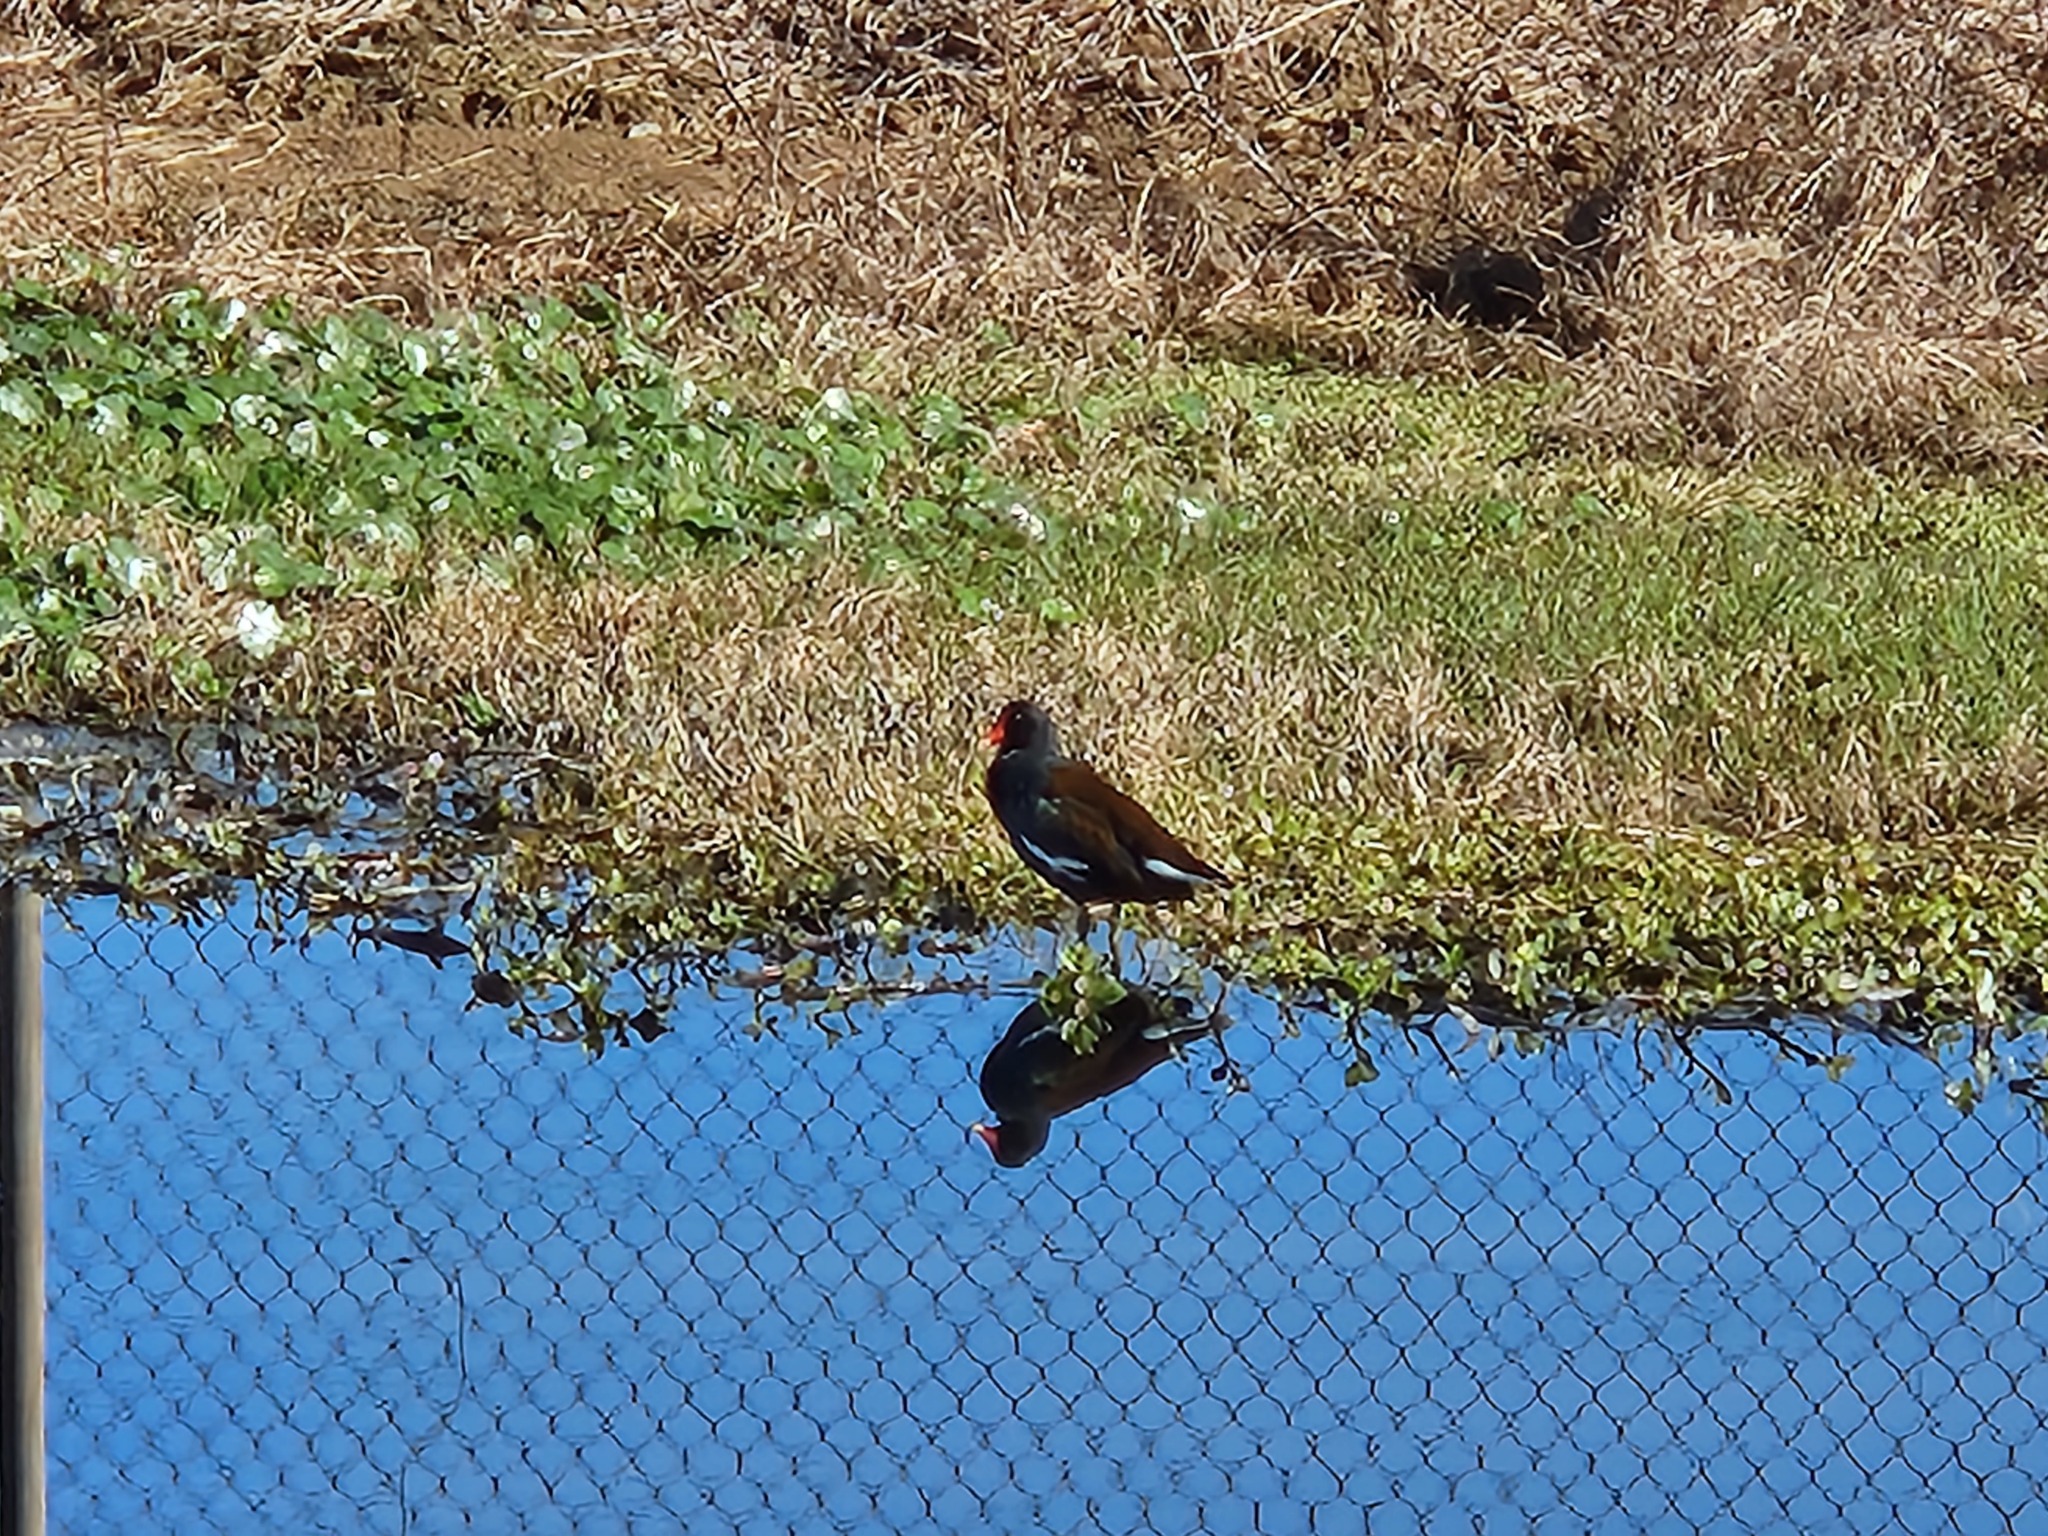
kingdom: Animalia
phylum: Chordata
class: Aves
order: Gruiformes
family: Rallidae
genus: Gallinula
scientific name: Gallinula chloropus
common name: Common moorhen
